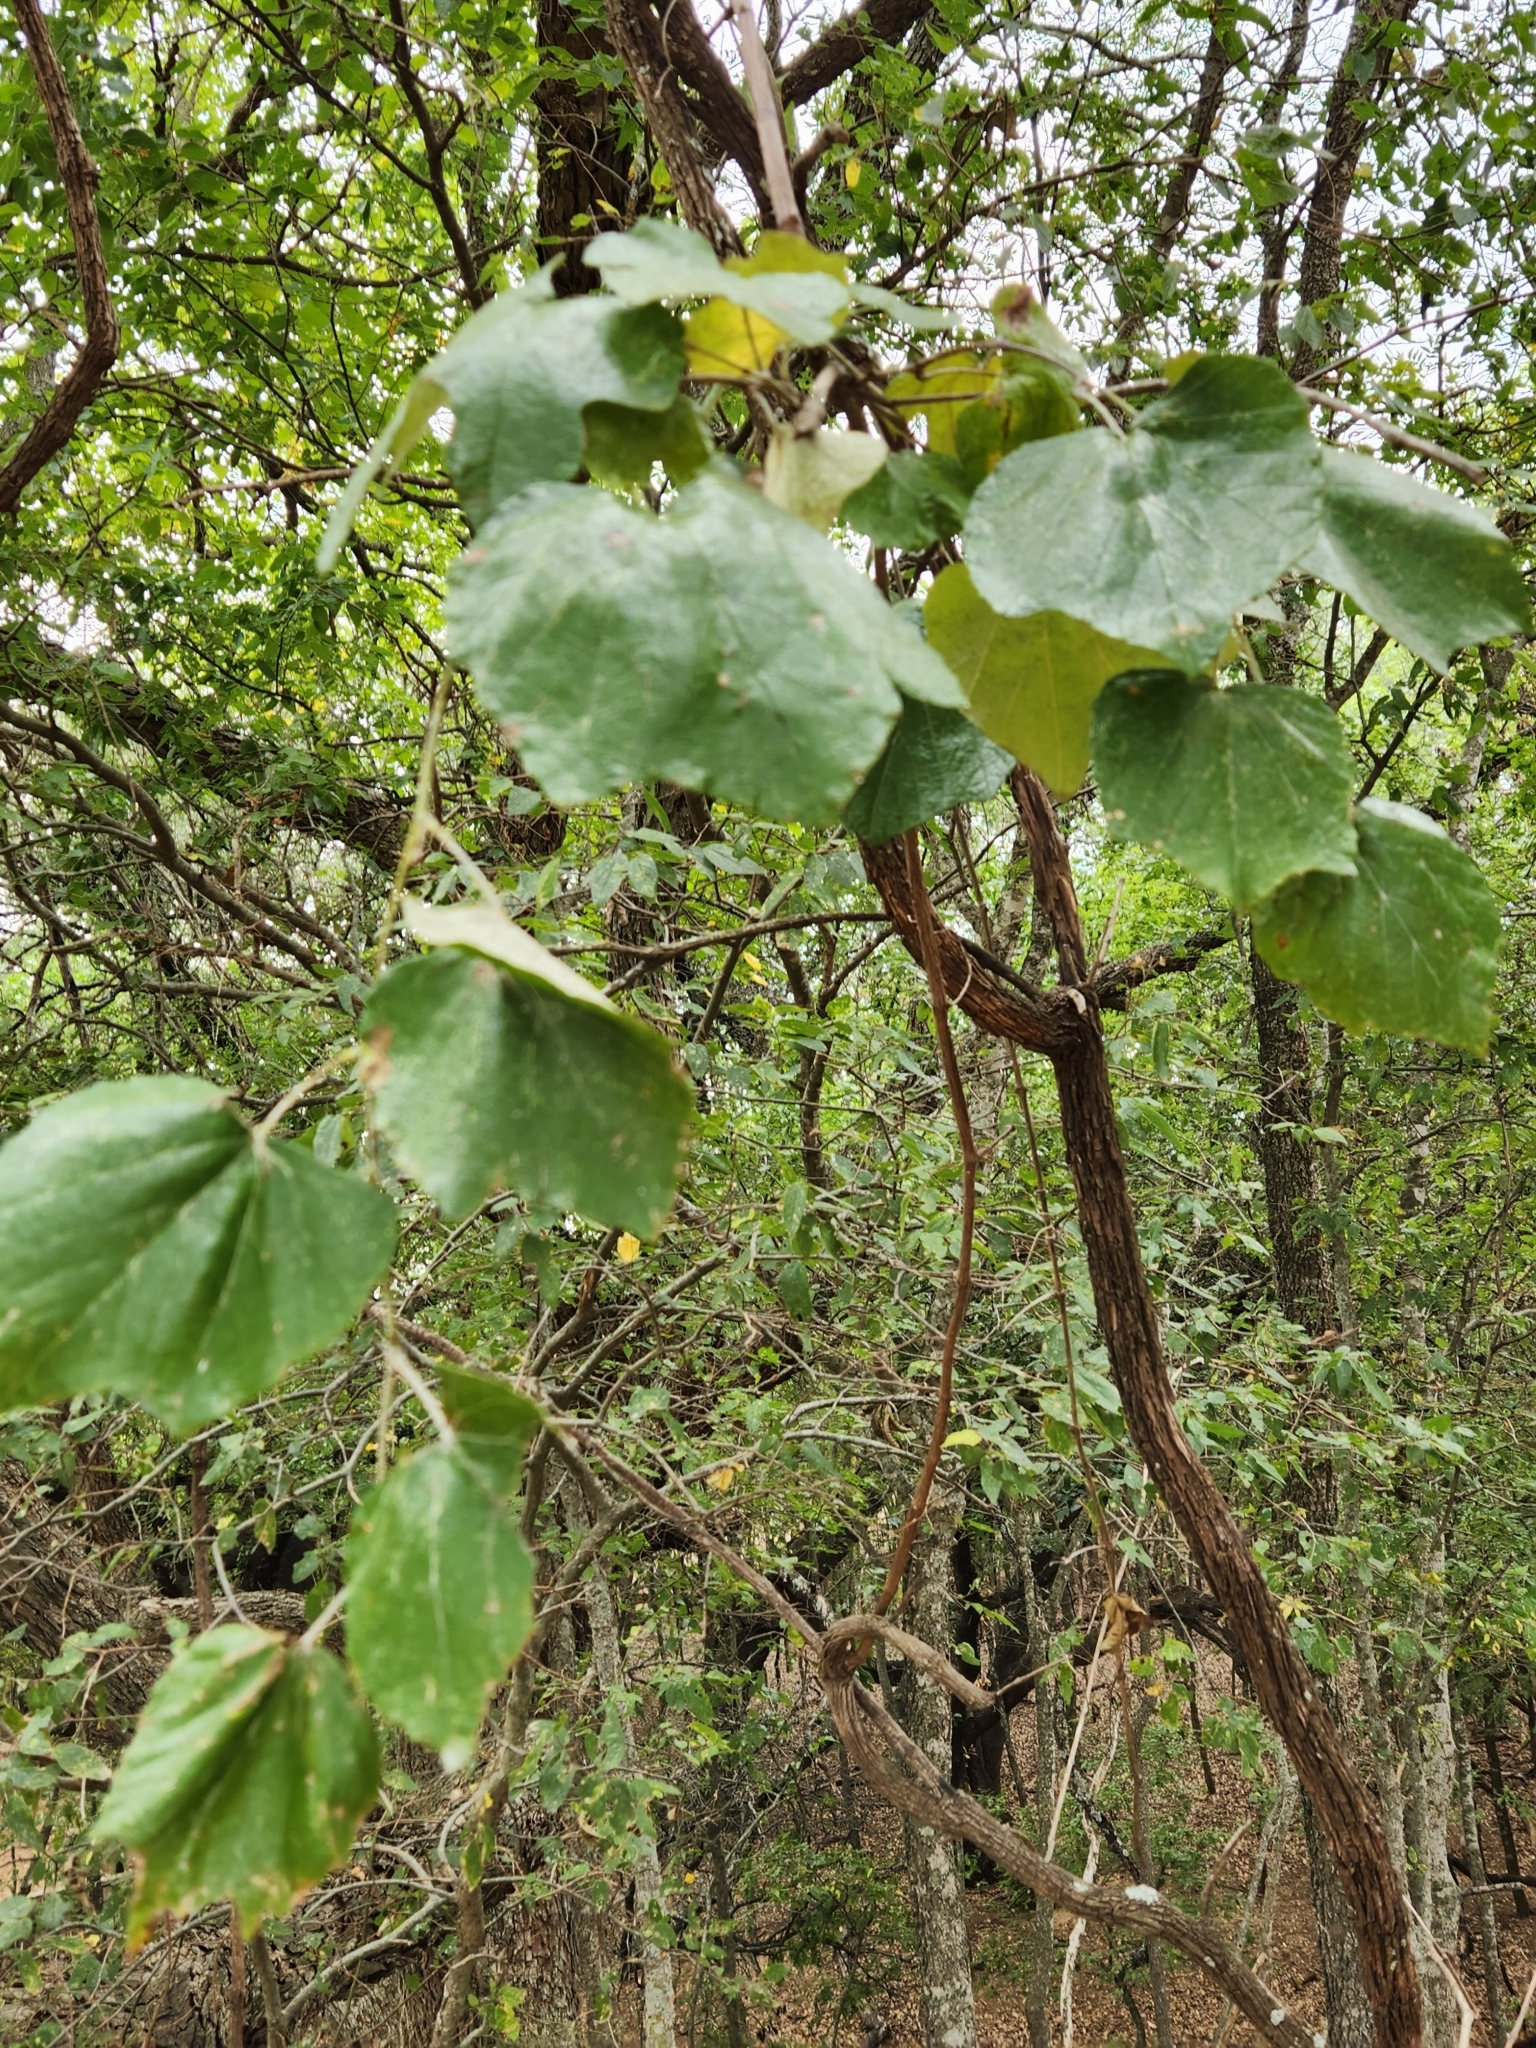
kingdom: Plantae
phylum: Tracheophyta
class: Magnoliopsida
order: Vitales
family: Vitaceae
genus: Vitis
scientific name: Vitis mustangensis
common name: Mustang grape
